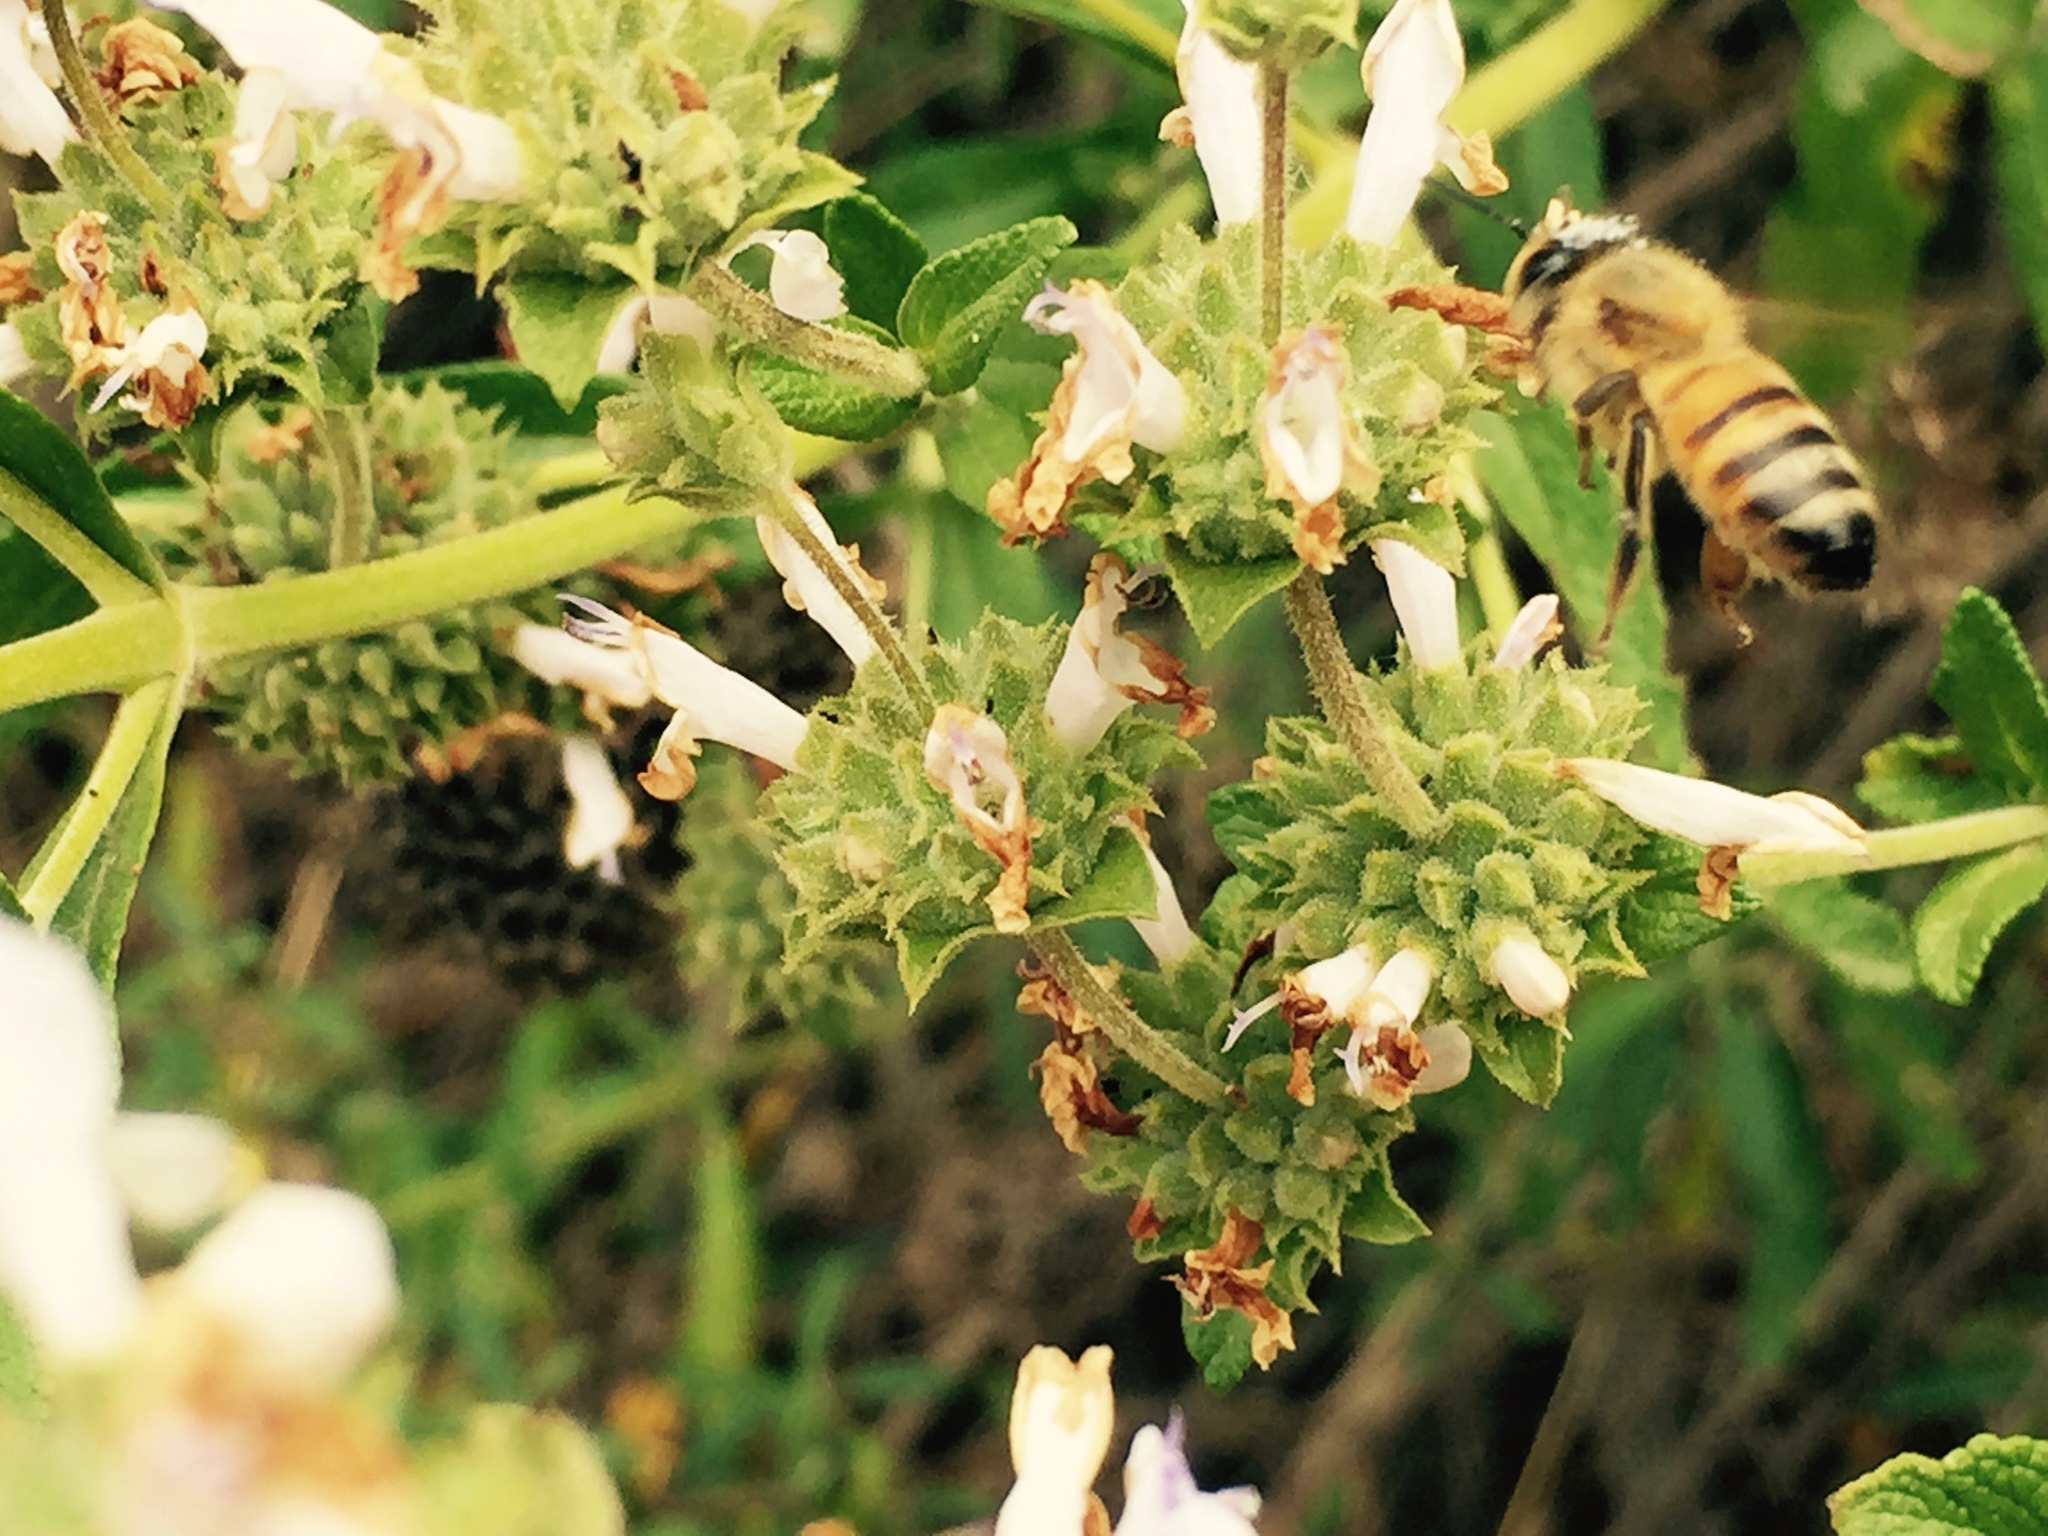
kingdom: Animalia
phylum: Arthropoda
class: Insecta
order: Hymenoptera
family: Apidae
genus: Apis
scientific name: Apis mellifera
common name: Honey bee
